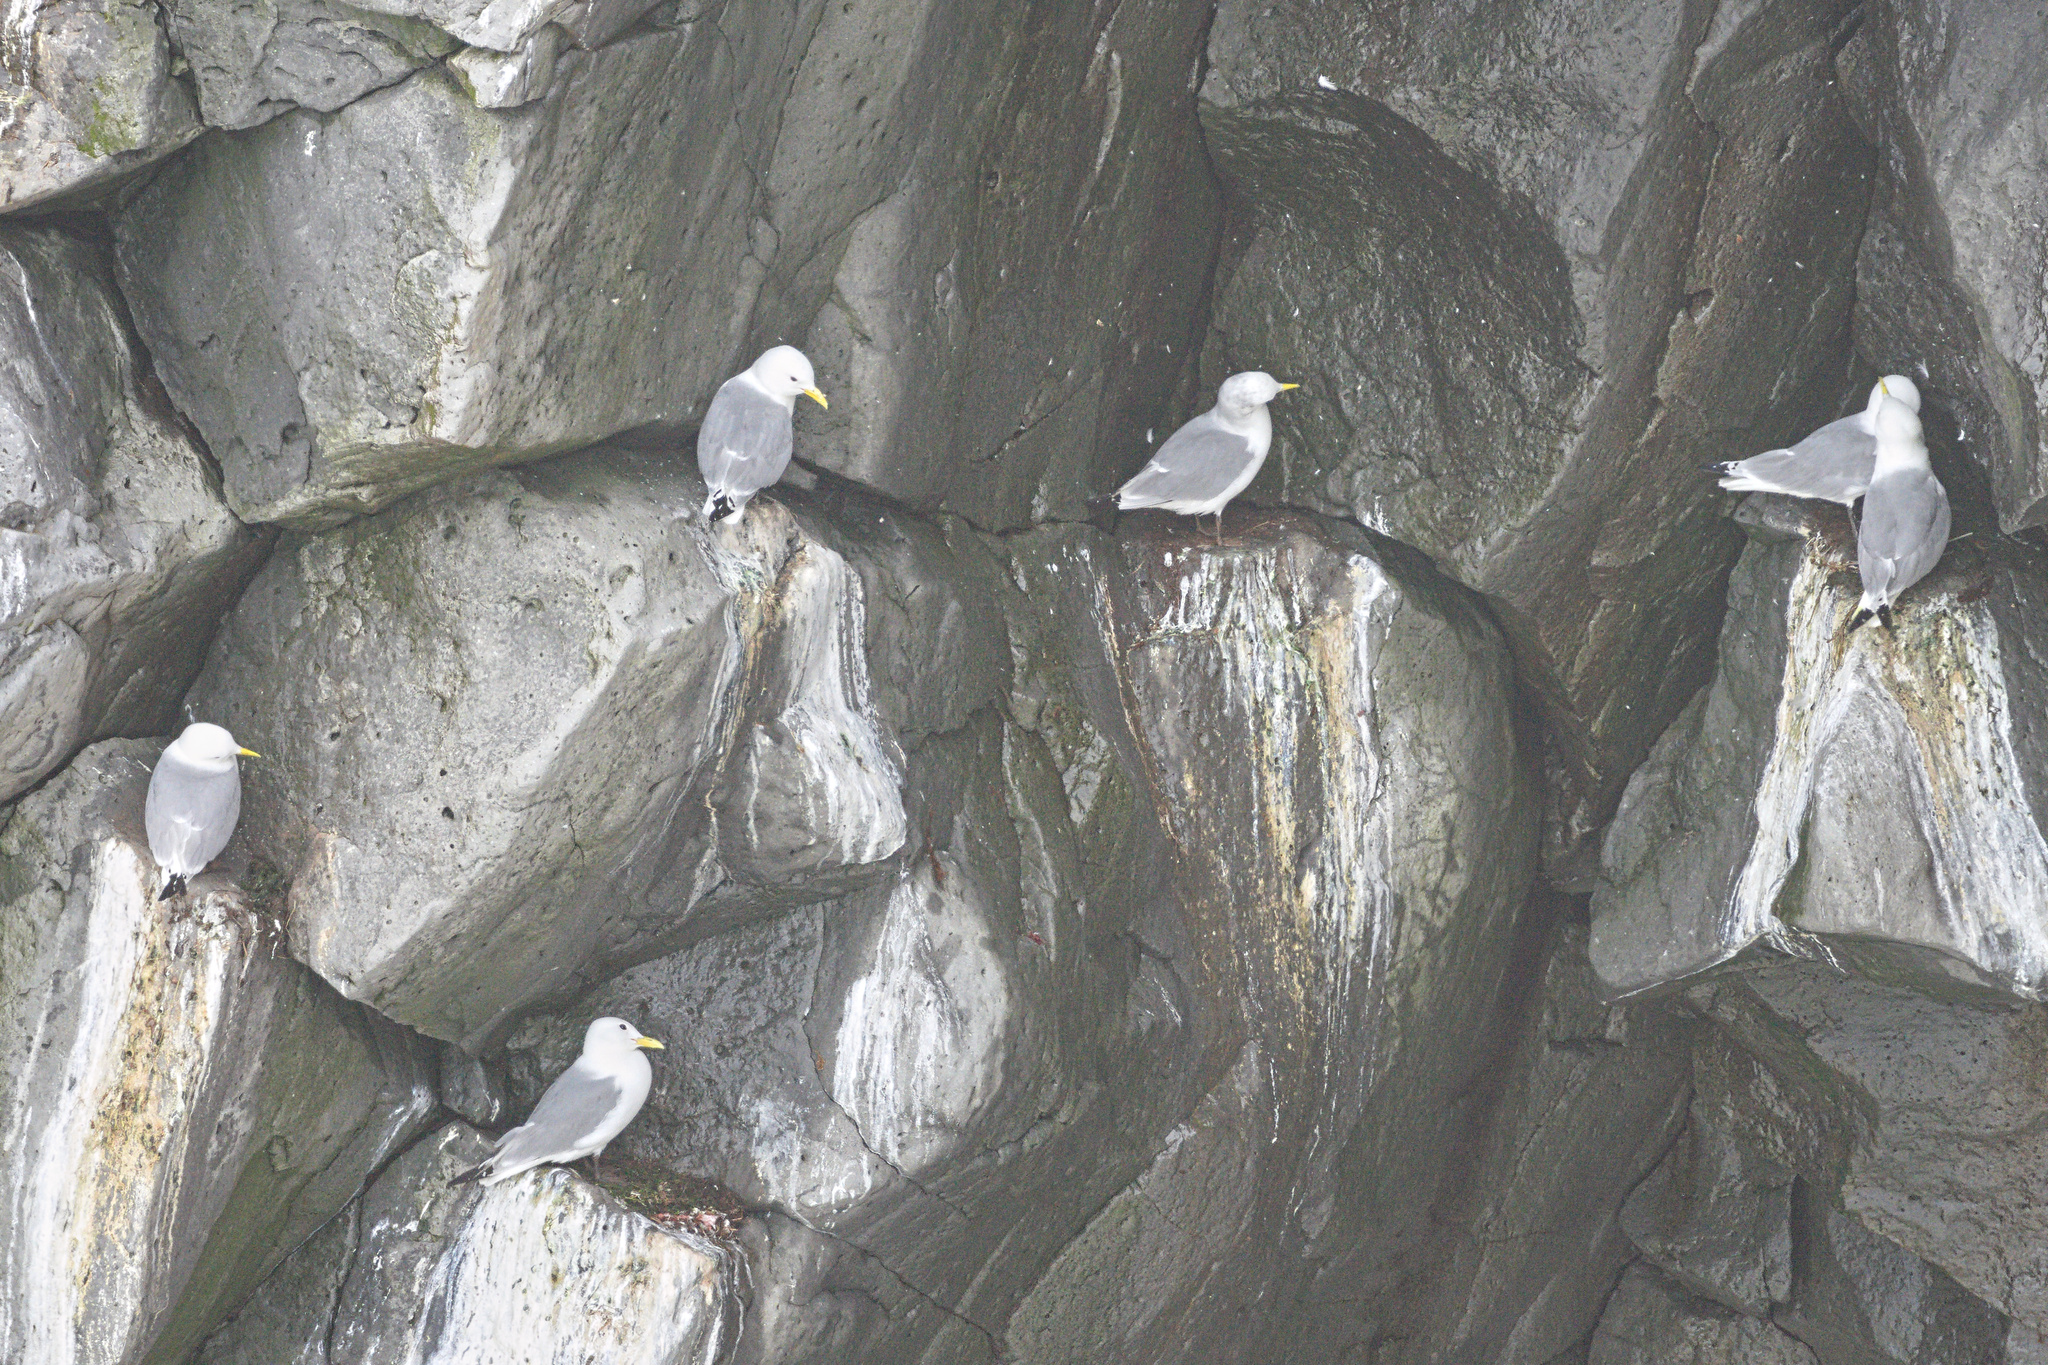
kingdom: Animalia
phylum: Chordata
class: Aves
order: Charadriiformes
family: Laridae
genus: Rissa
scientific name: Rissa tridactyla
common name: Black-legged kittiwake
